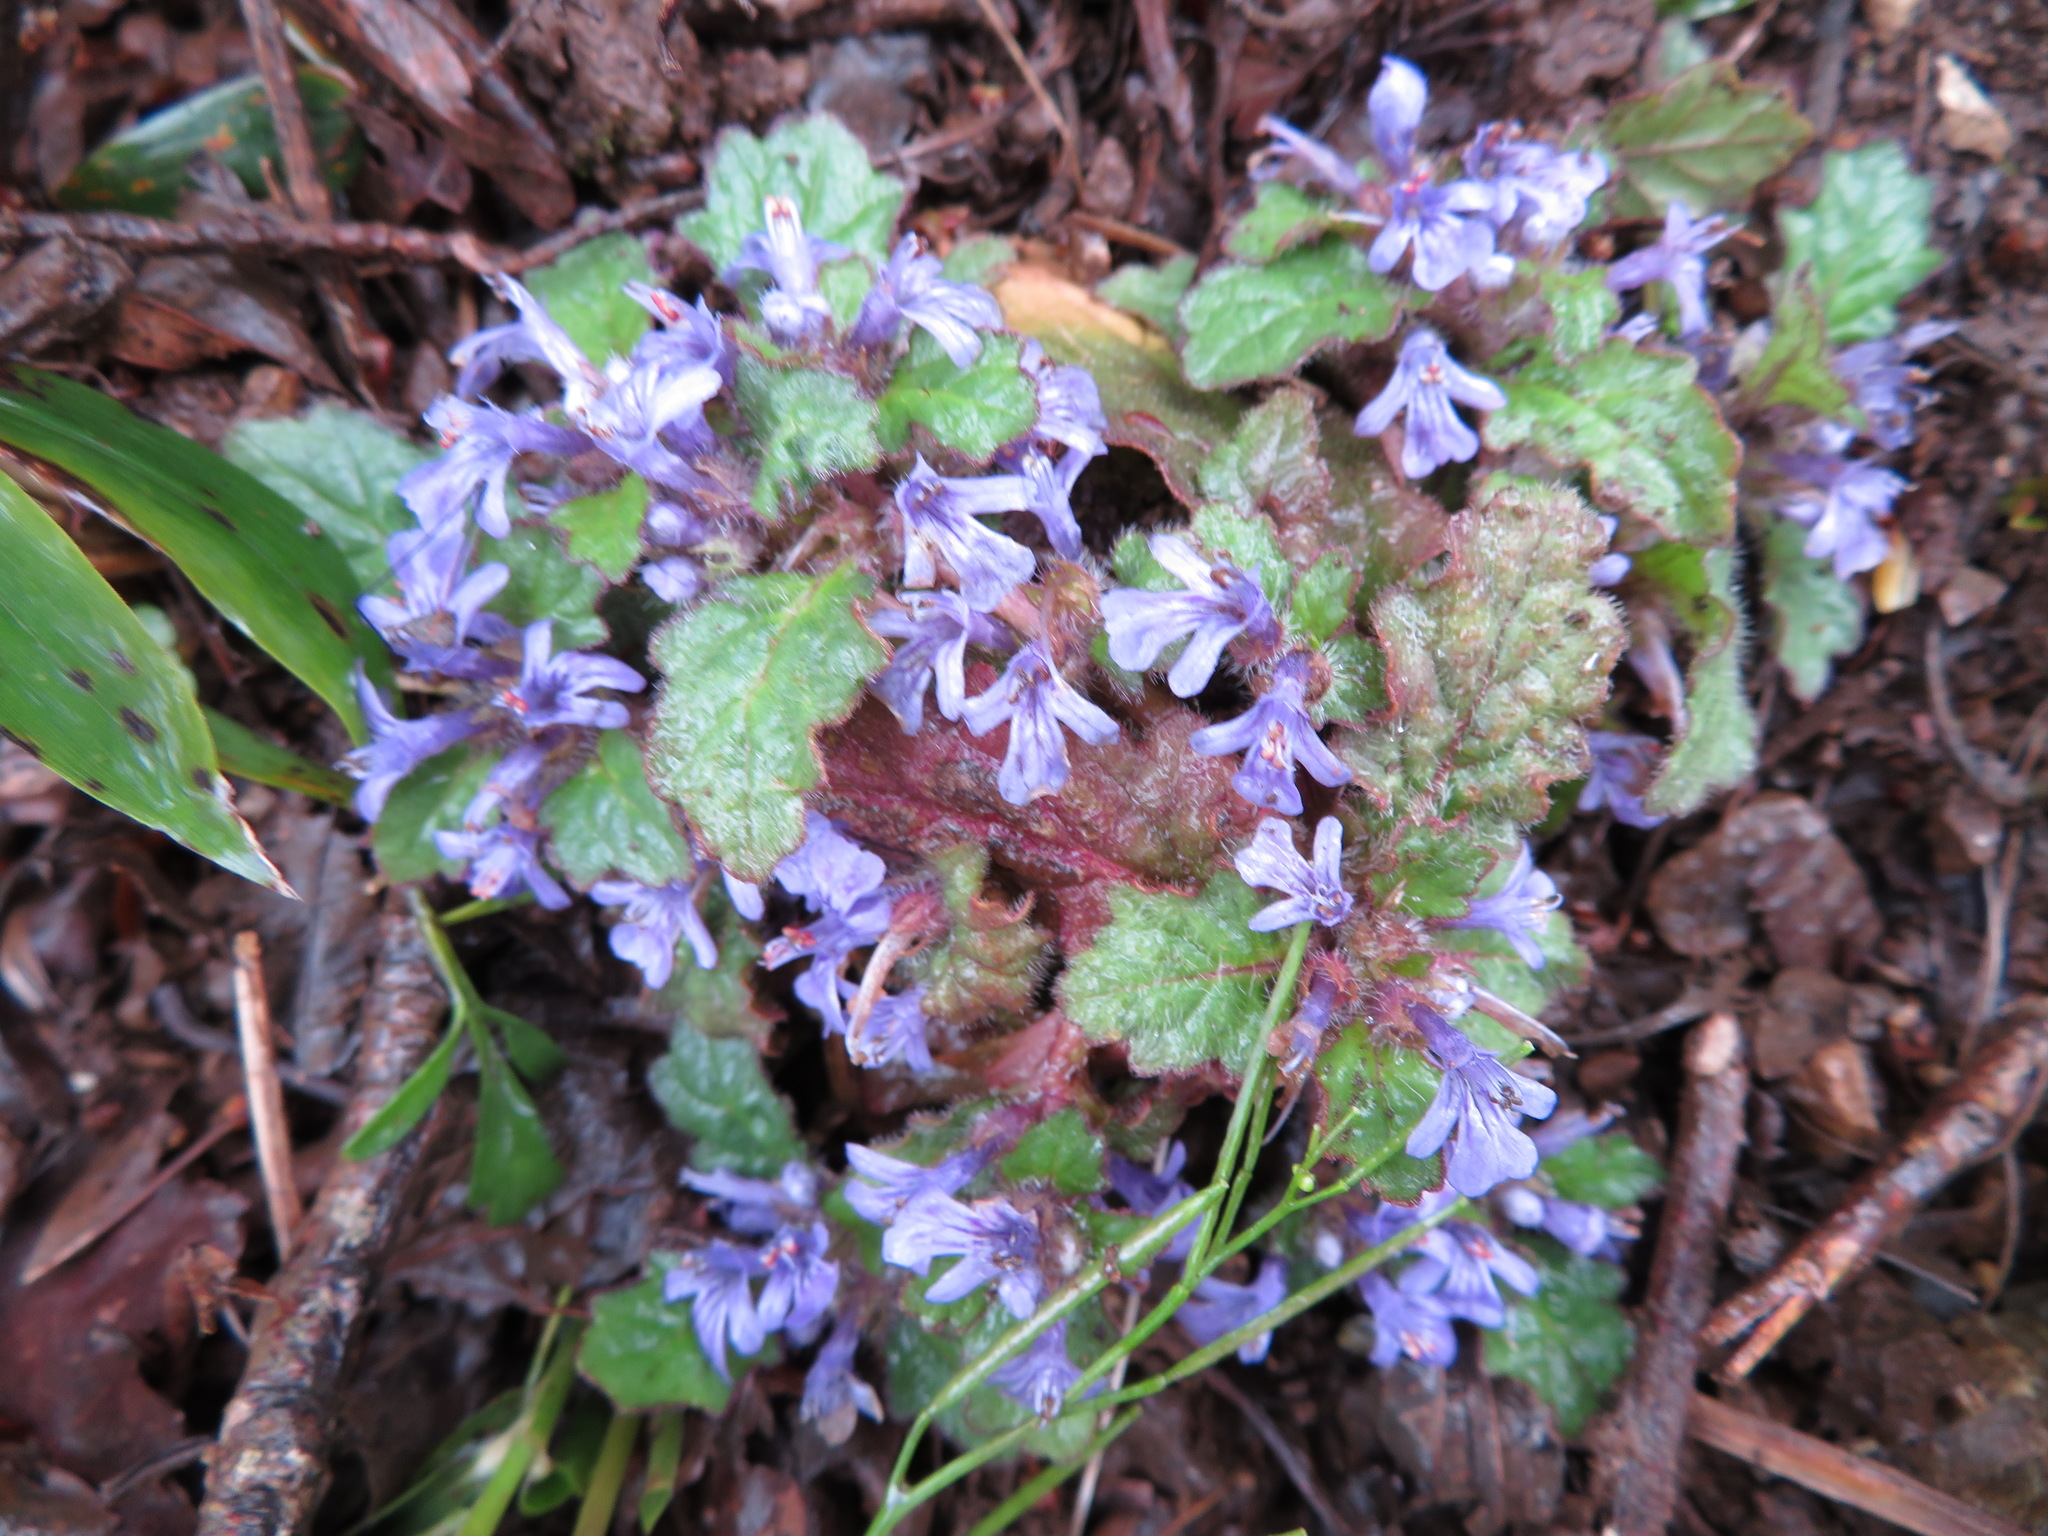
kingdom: Plantae
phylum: Tracheophyta
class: Magnoliopsida
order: Lamiales
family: Lamiaceae
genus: Ajuga
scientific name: Ajuga decumbens
